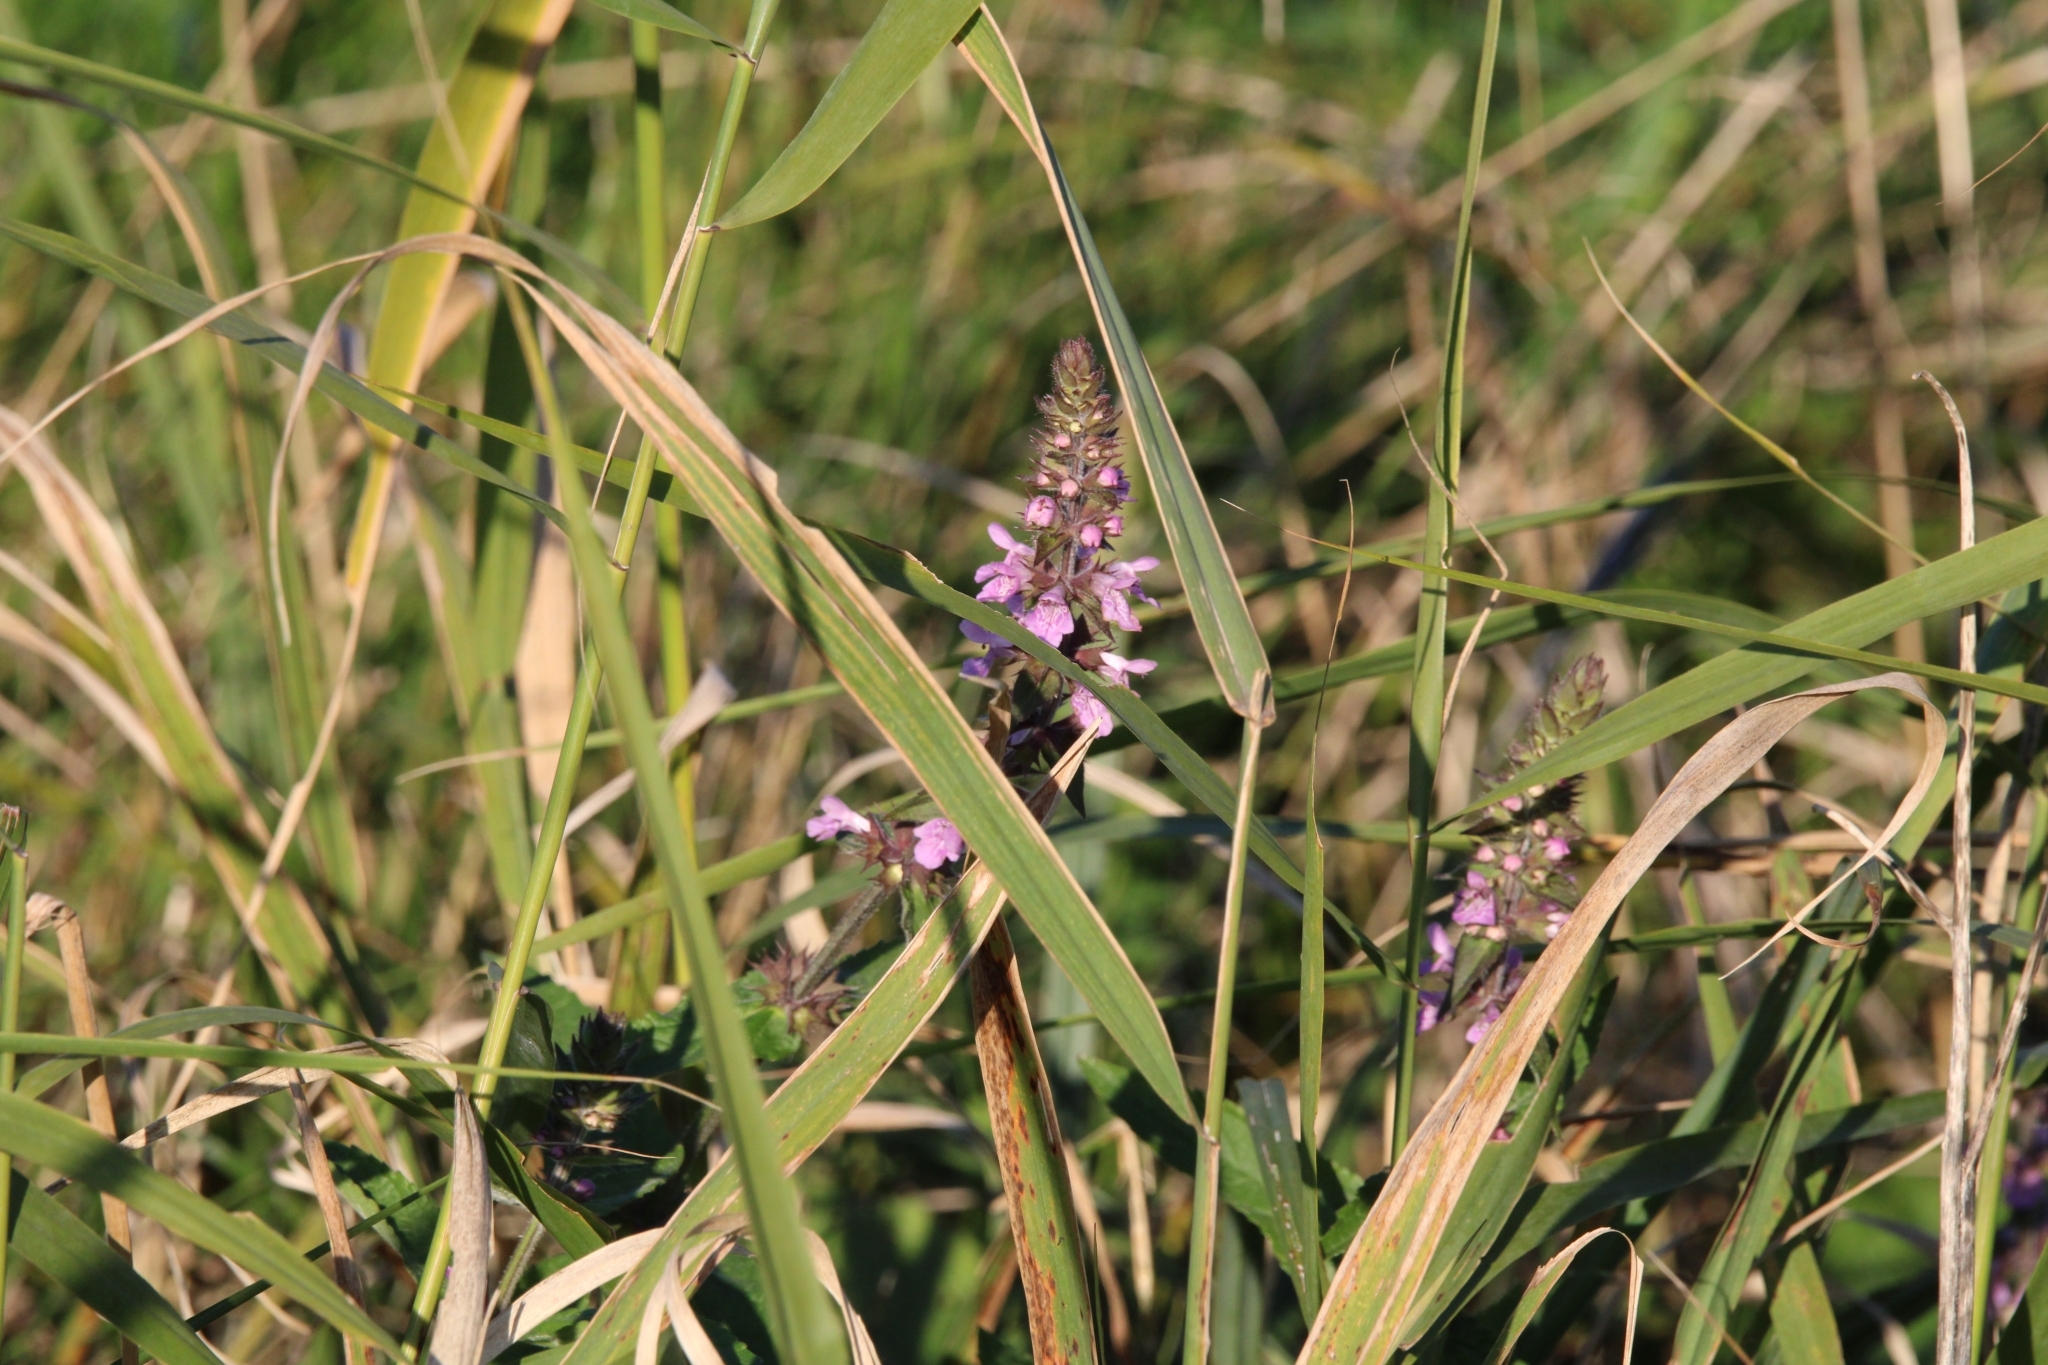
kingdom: Plantae
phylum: Tracheophyta
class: Magnoliopsida
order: Lamiales
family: Lamiaceae
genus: Stachys
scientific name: Stachys palustris
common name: Marsh woundwort
